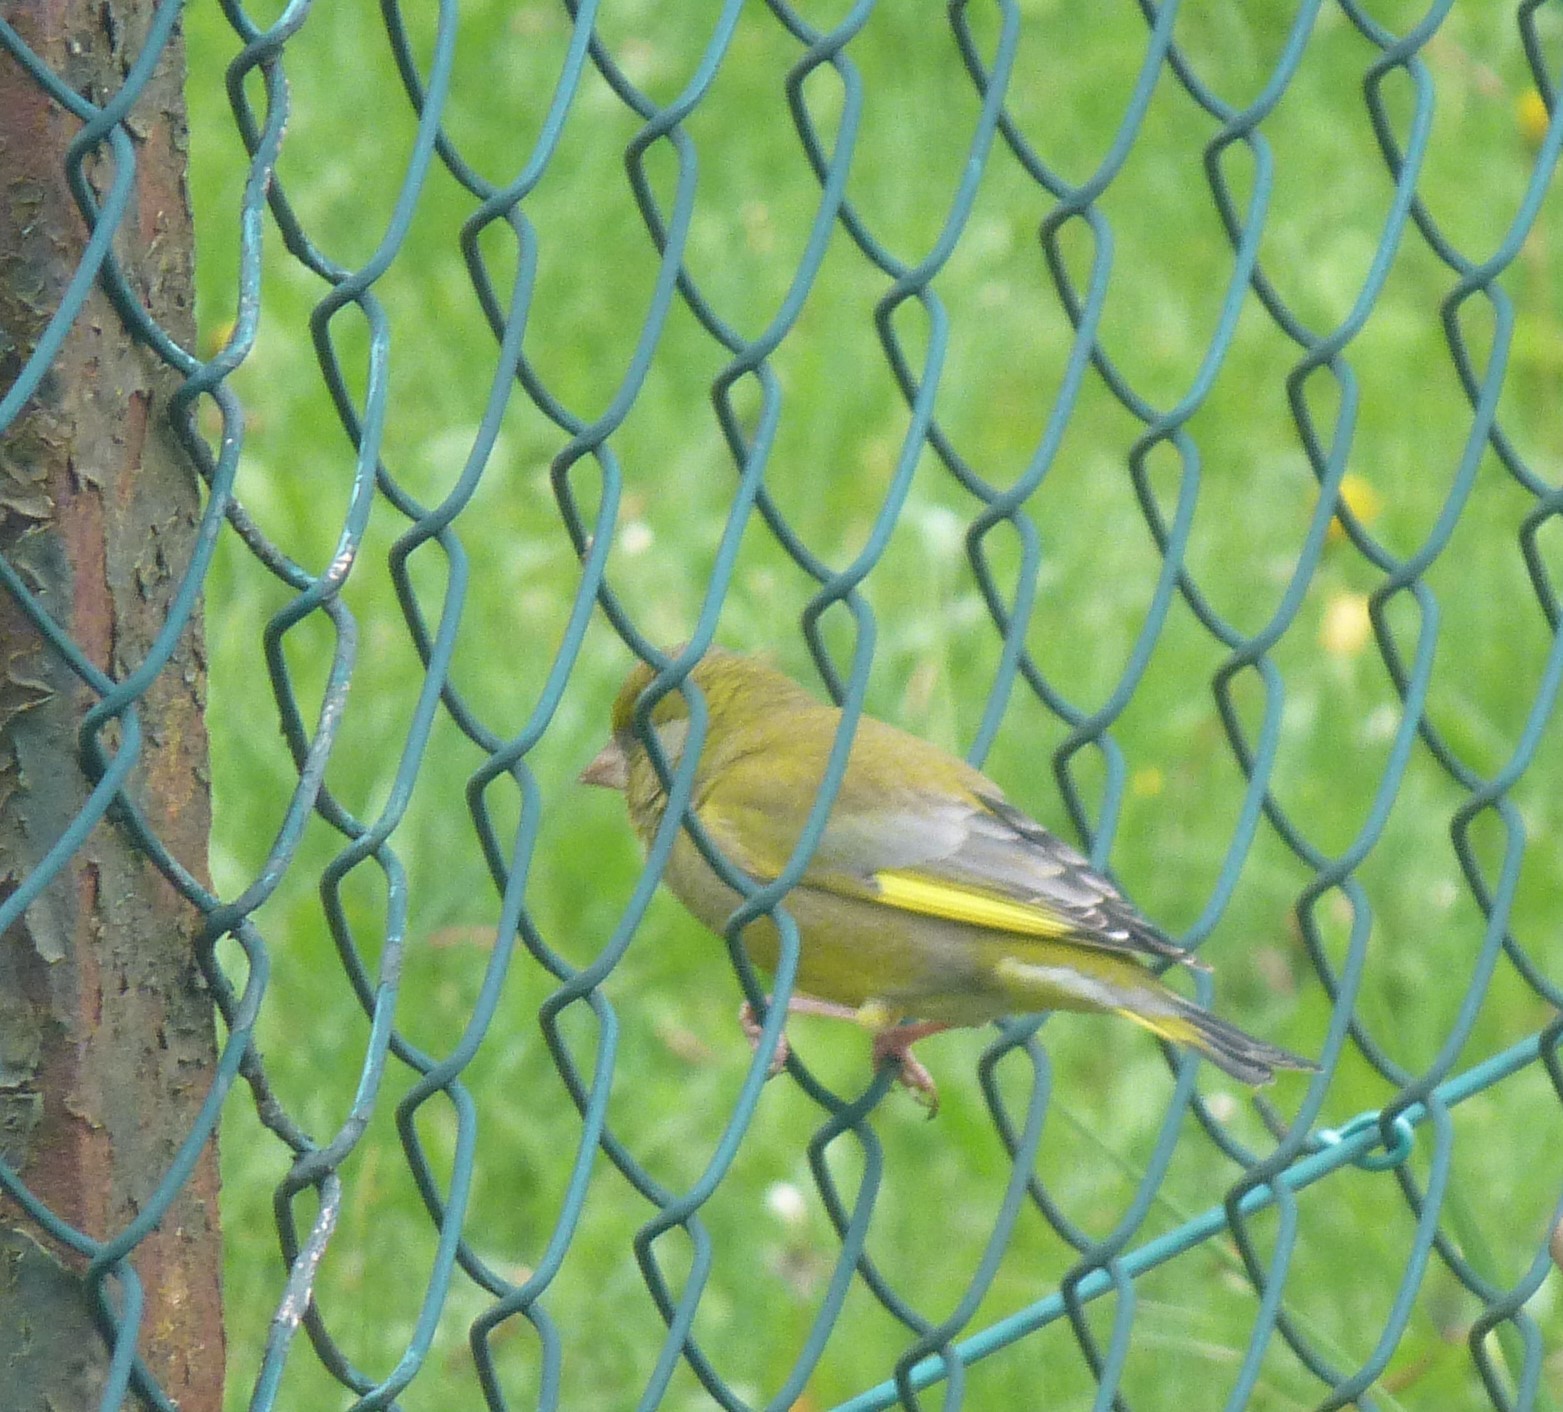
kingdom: Plantae
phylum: Tracheophyta
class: Liliopsida
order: Poales
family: Poaceae
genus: Chloris
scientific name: Chloris chloris
